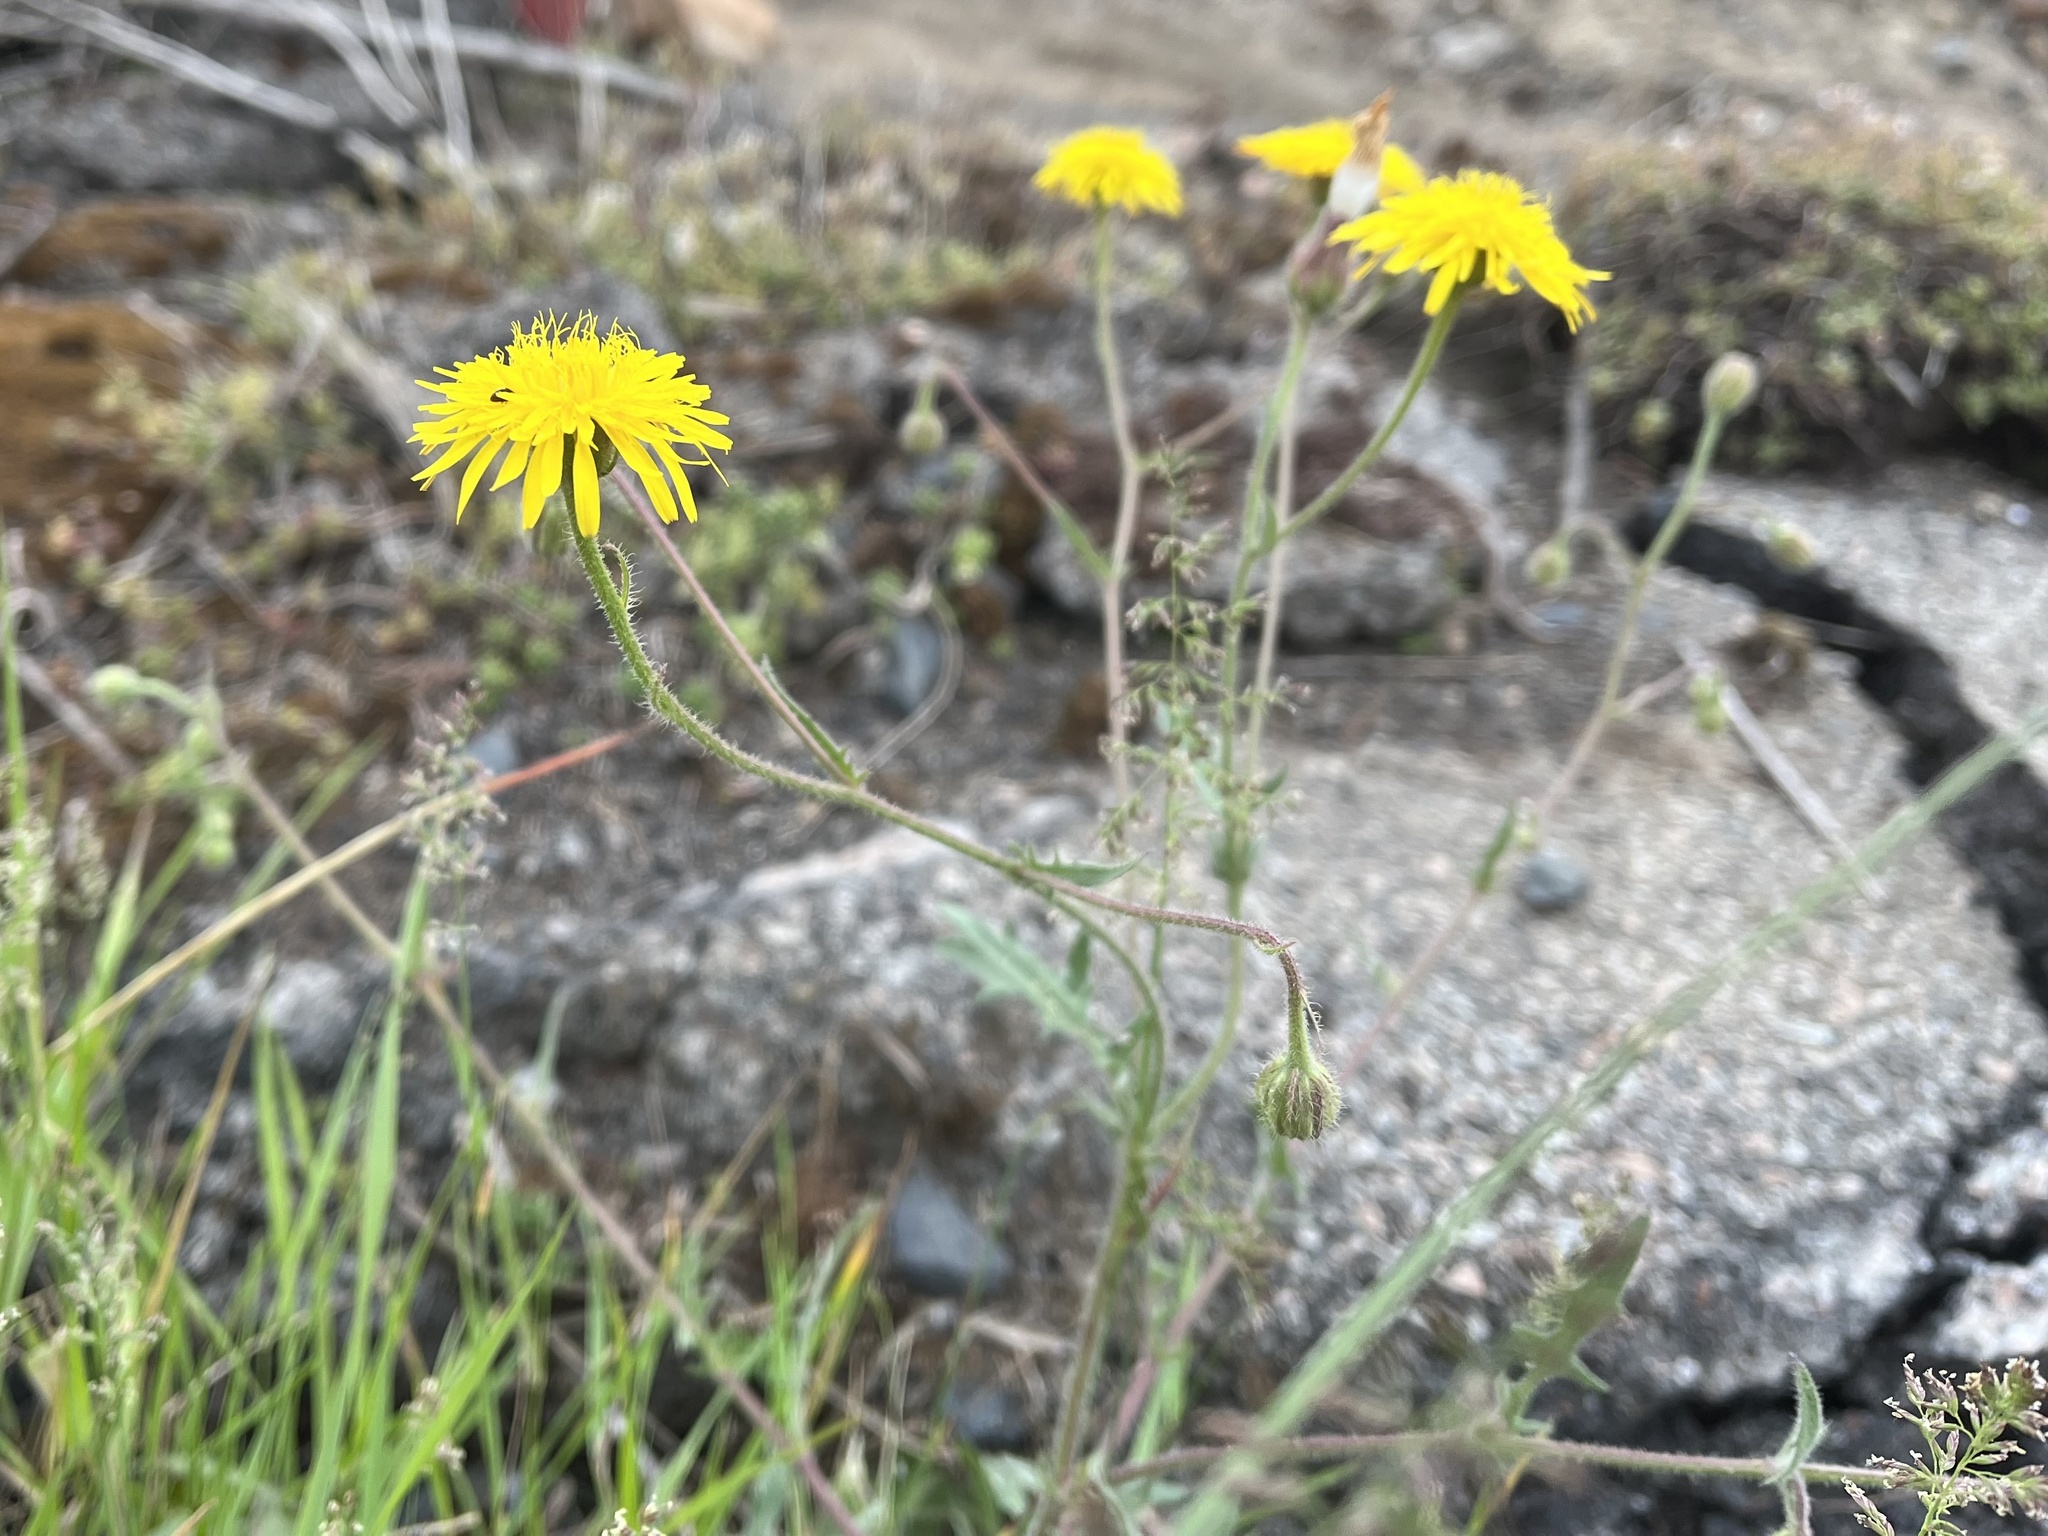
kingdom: Plantae
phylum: Tracheophyta
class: Magnoliopsida
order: Asterales
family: Asteraceae
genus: Crepis
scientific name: Crepis foetida
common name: Stinking hawk's-beard
